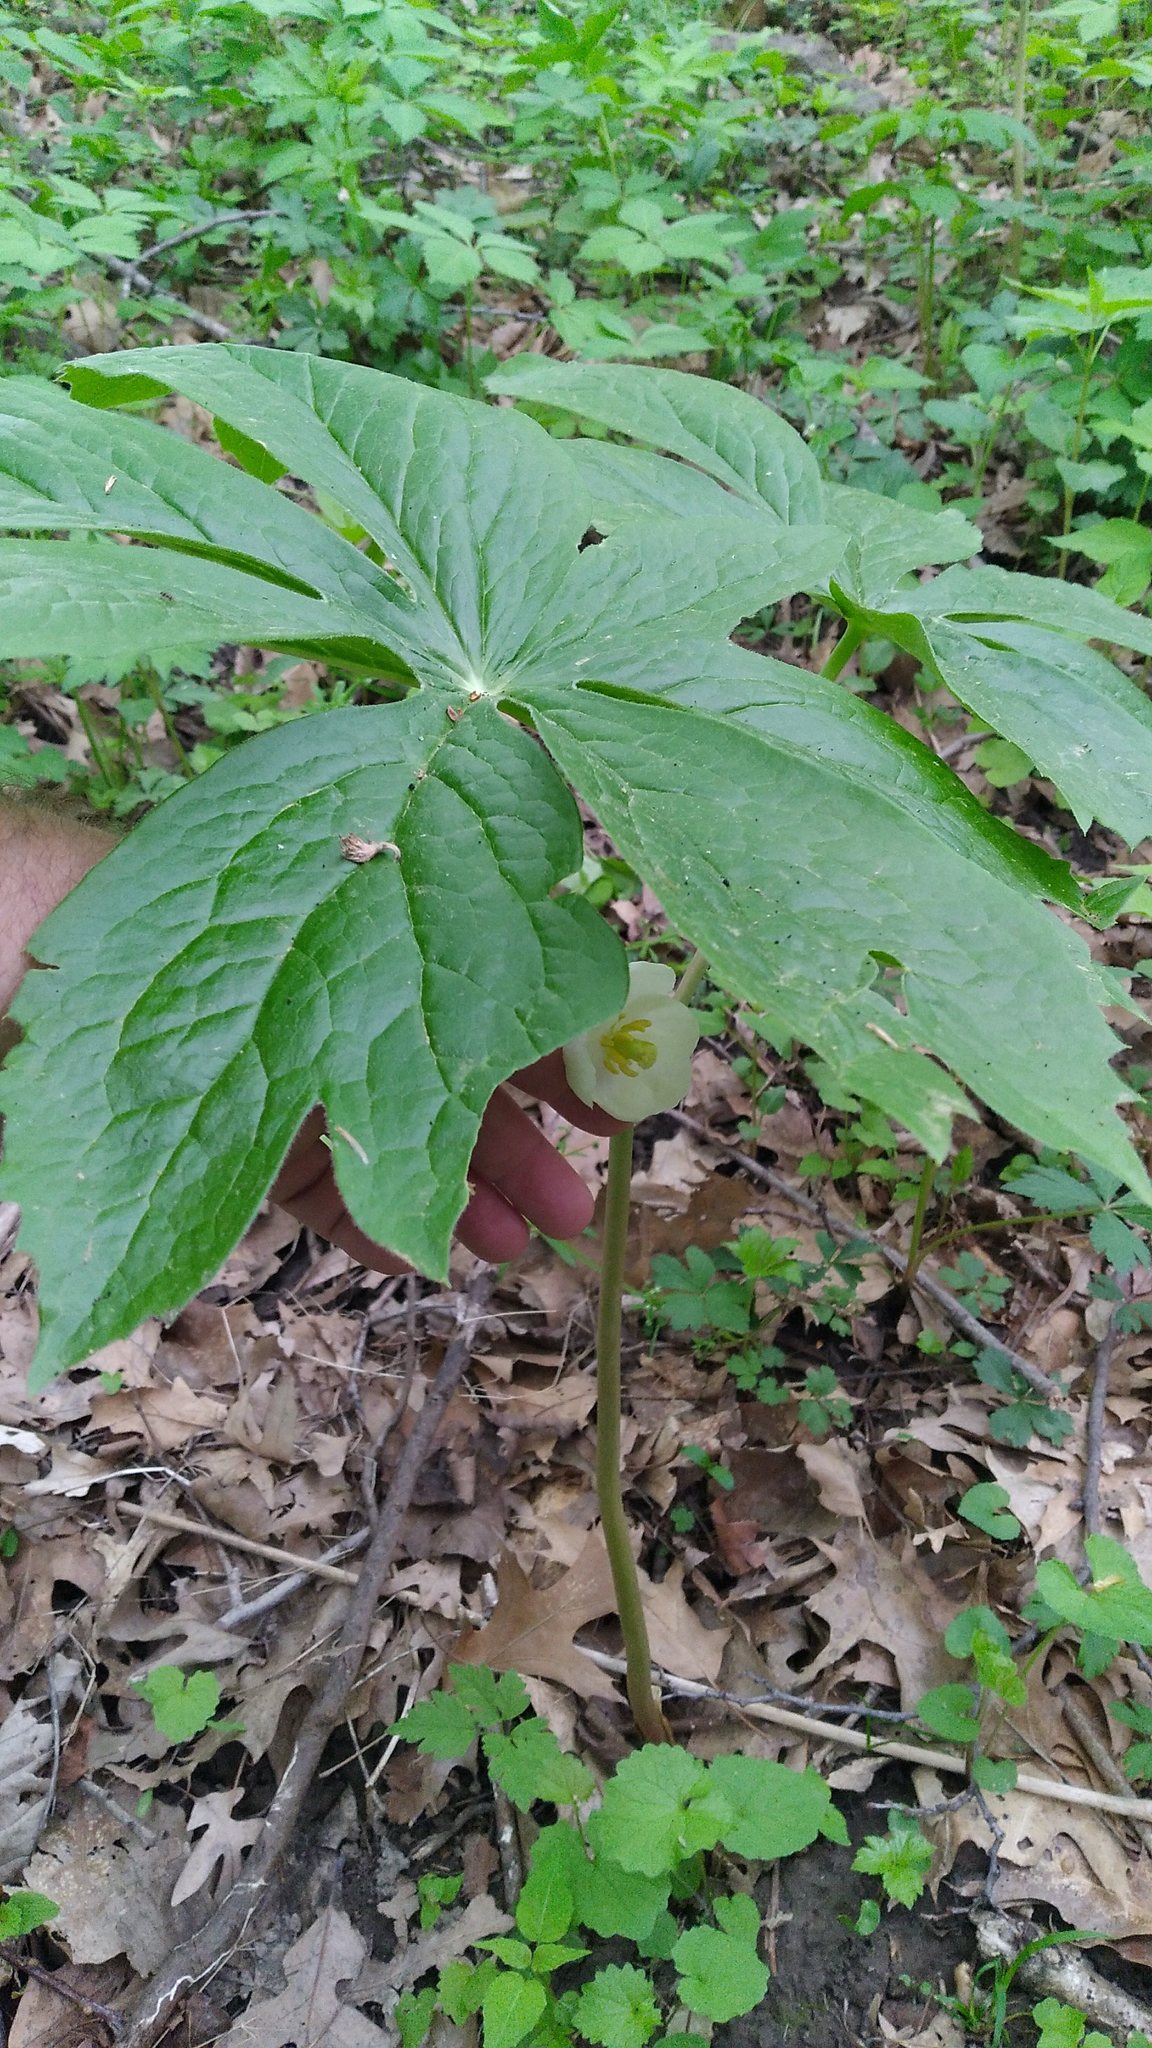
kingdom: Plantae
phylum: Tracheophyta
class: Magnoliopsida
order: Ranunculales
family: Berberidaceae
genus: Podophyllum
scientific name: Podophyllum peltatum
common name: Wild mandrake
